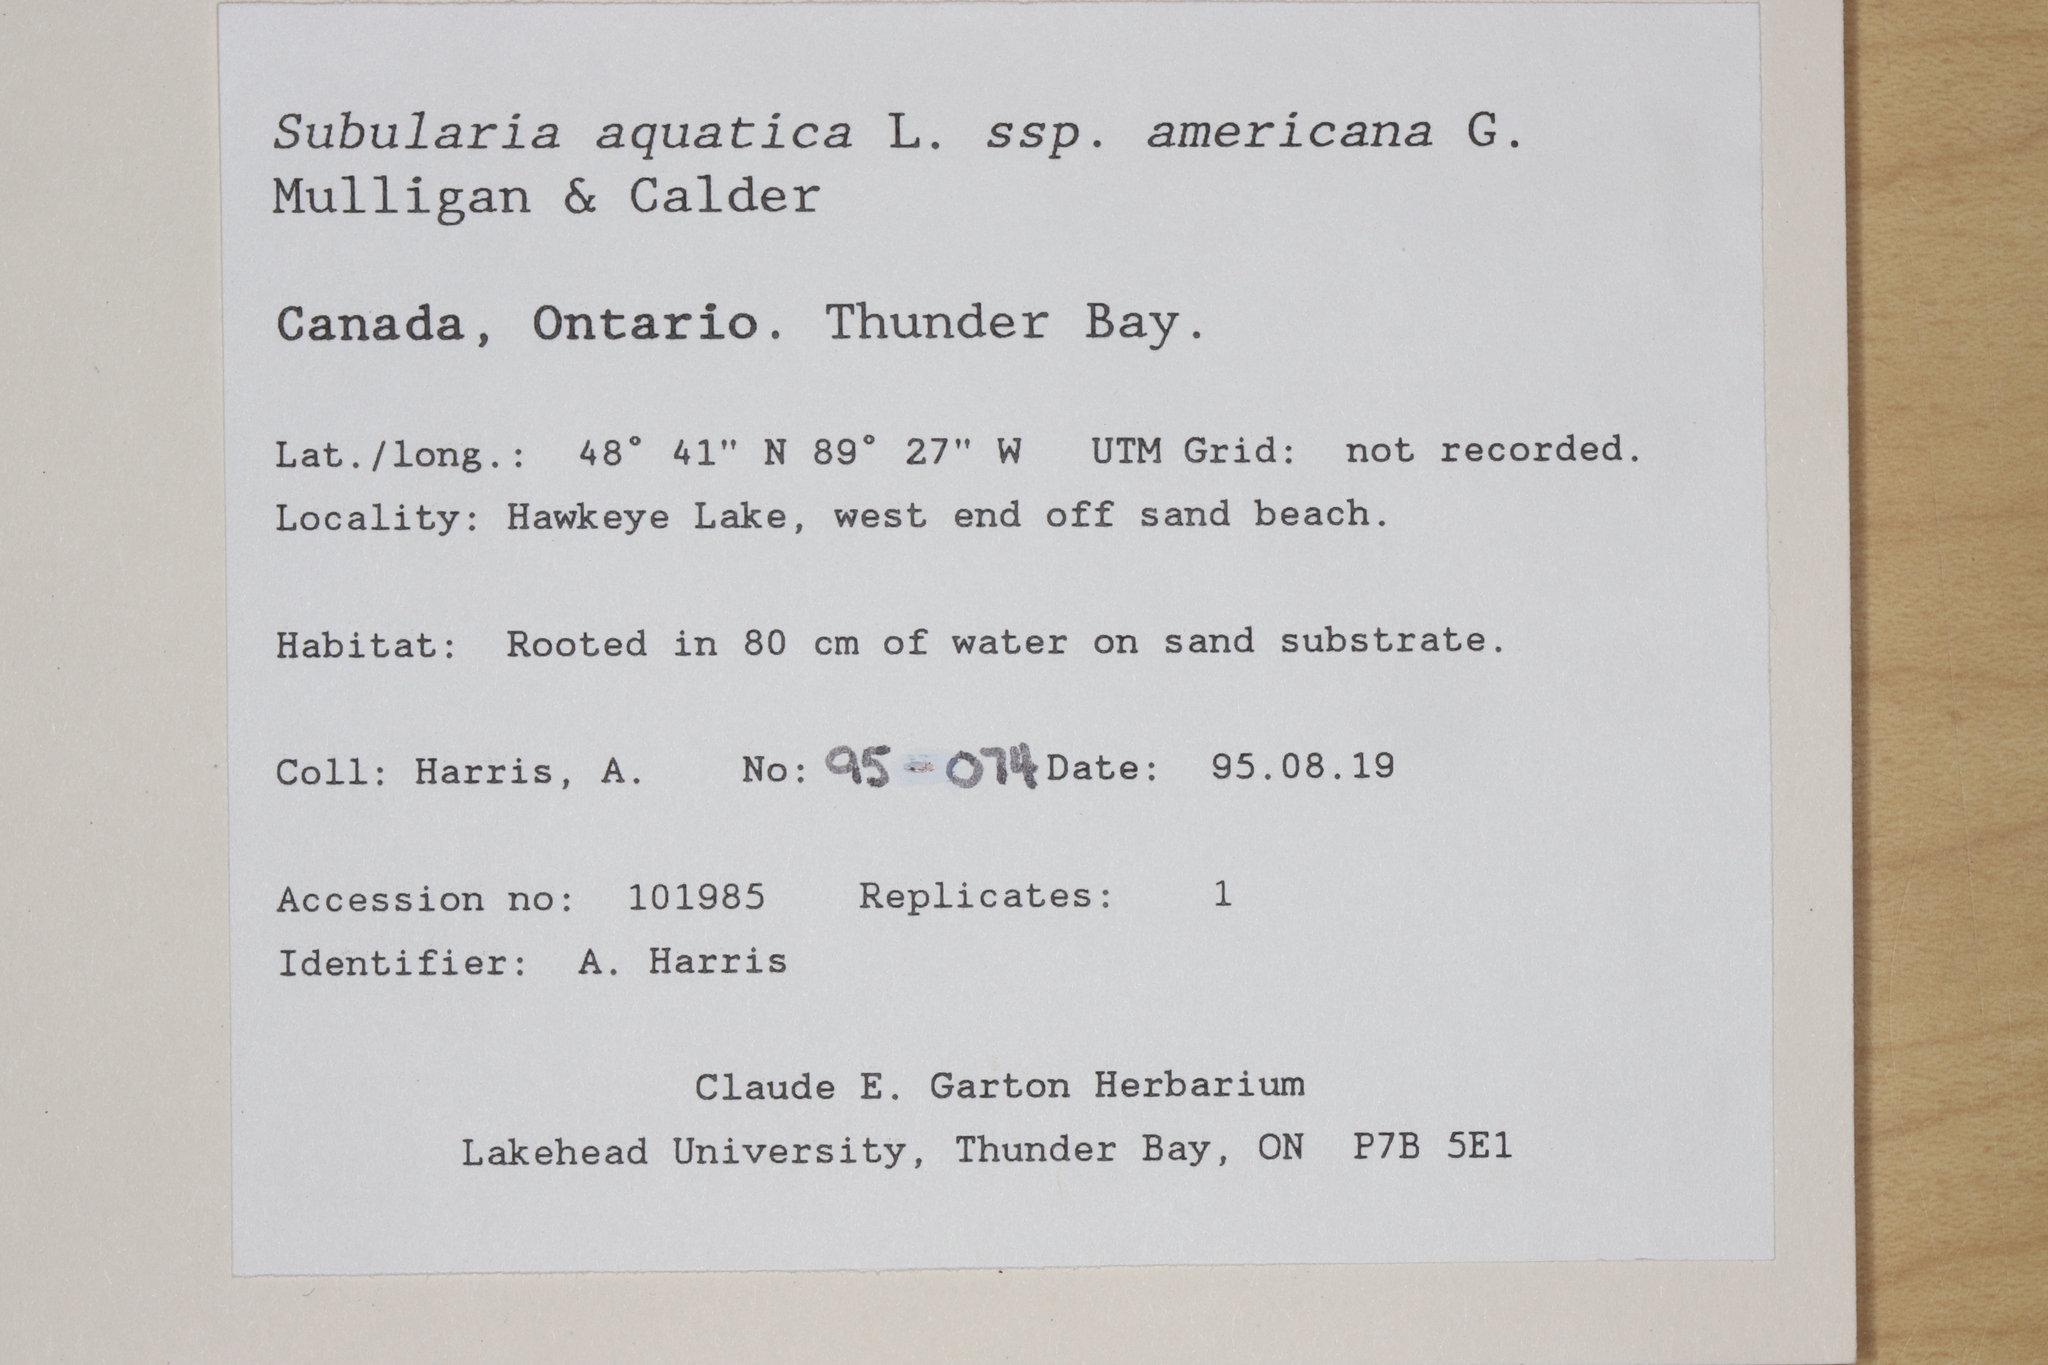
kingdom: Plantae
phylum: Tracheophyta
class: Magnoliopsida
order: Brassicales
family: Brassicaceae
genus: Subularia
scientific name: Subularia aquatica
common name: Awlwort
